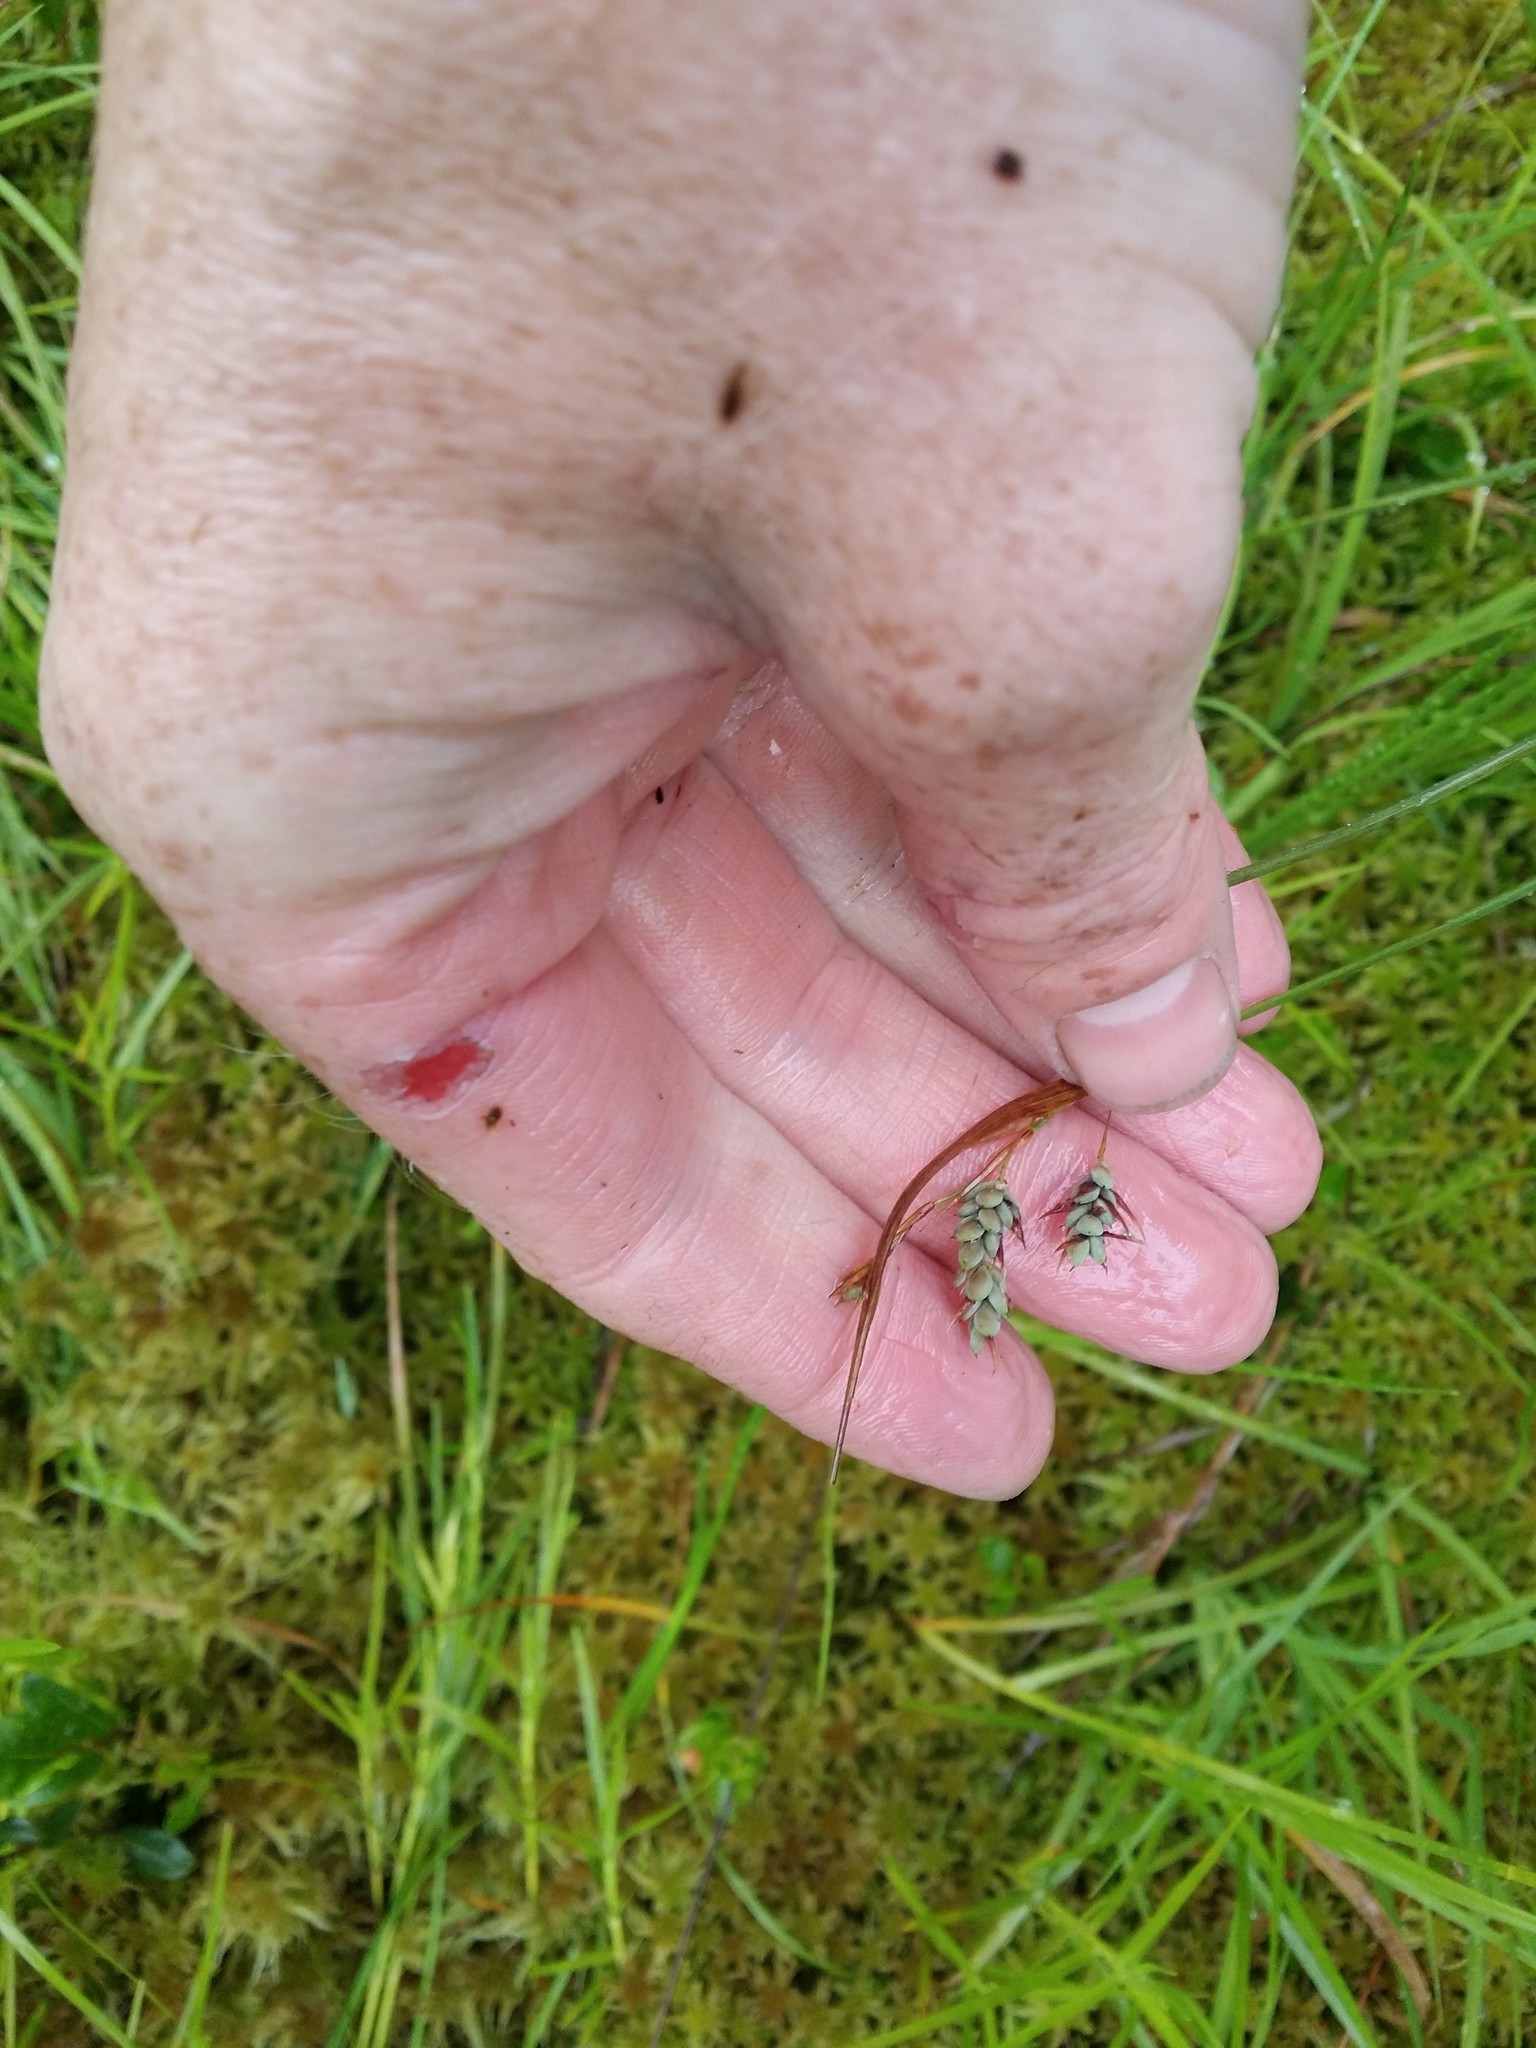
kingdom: Plantae
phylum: Tracheophyta
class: Liliopsida
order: Poales
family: Cyperaceae
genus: Carex
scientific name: Carex magellanica
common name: Bog sedge
